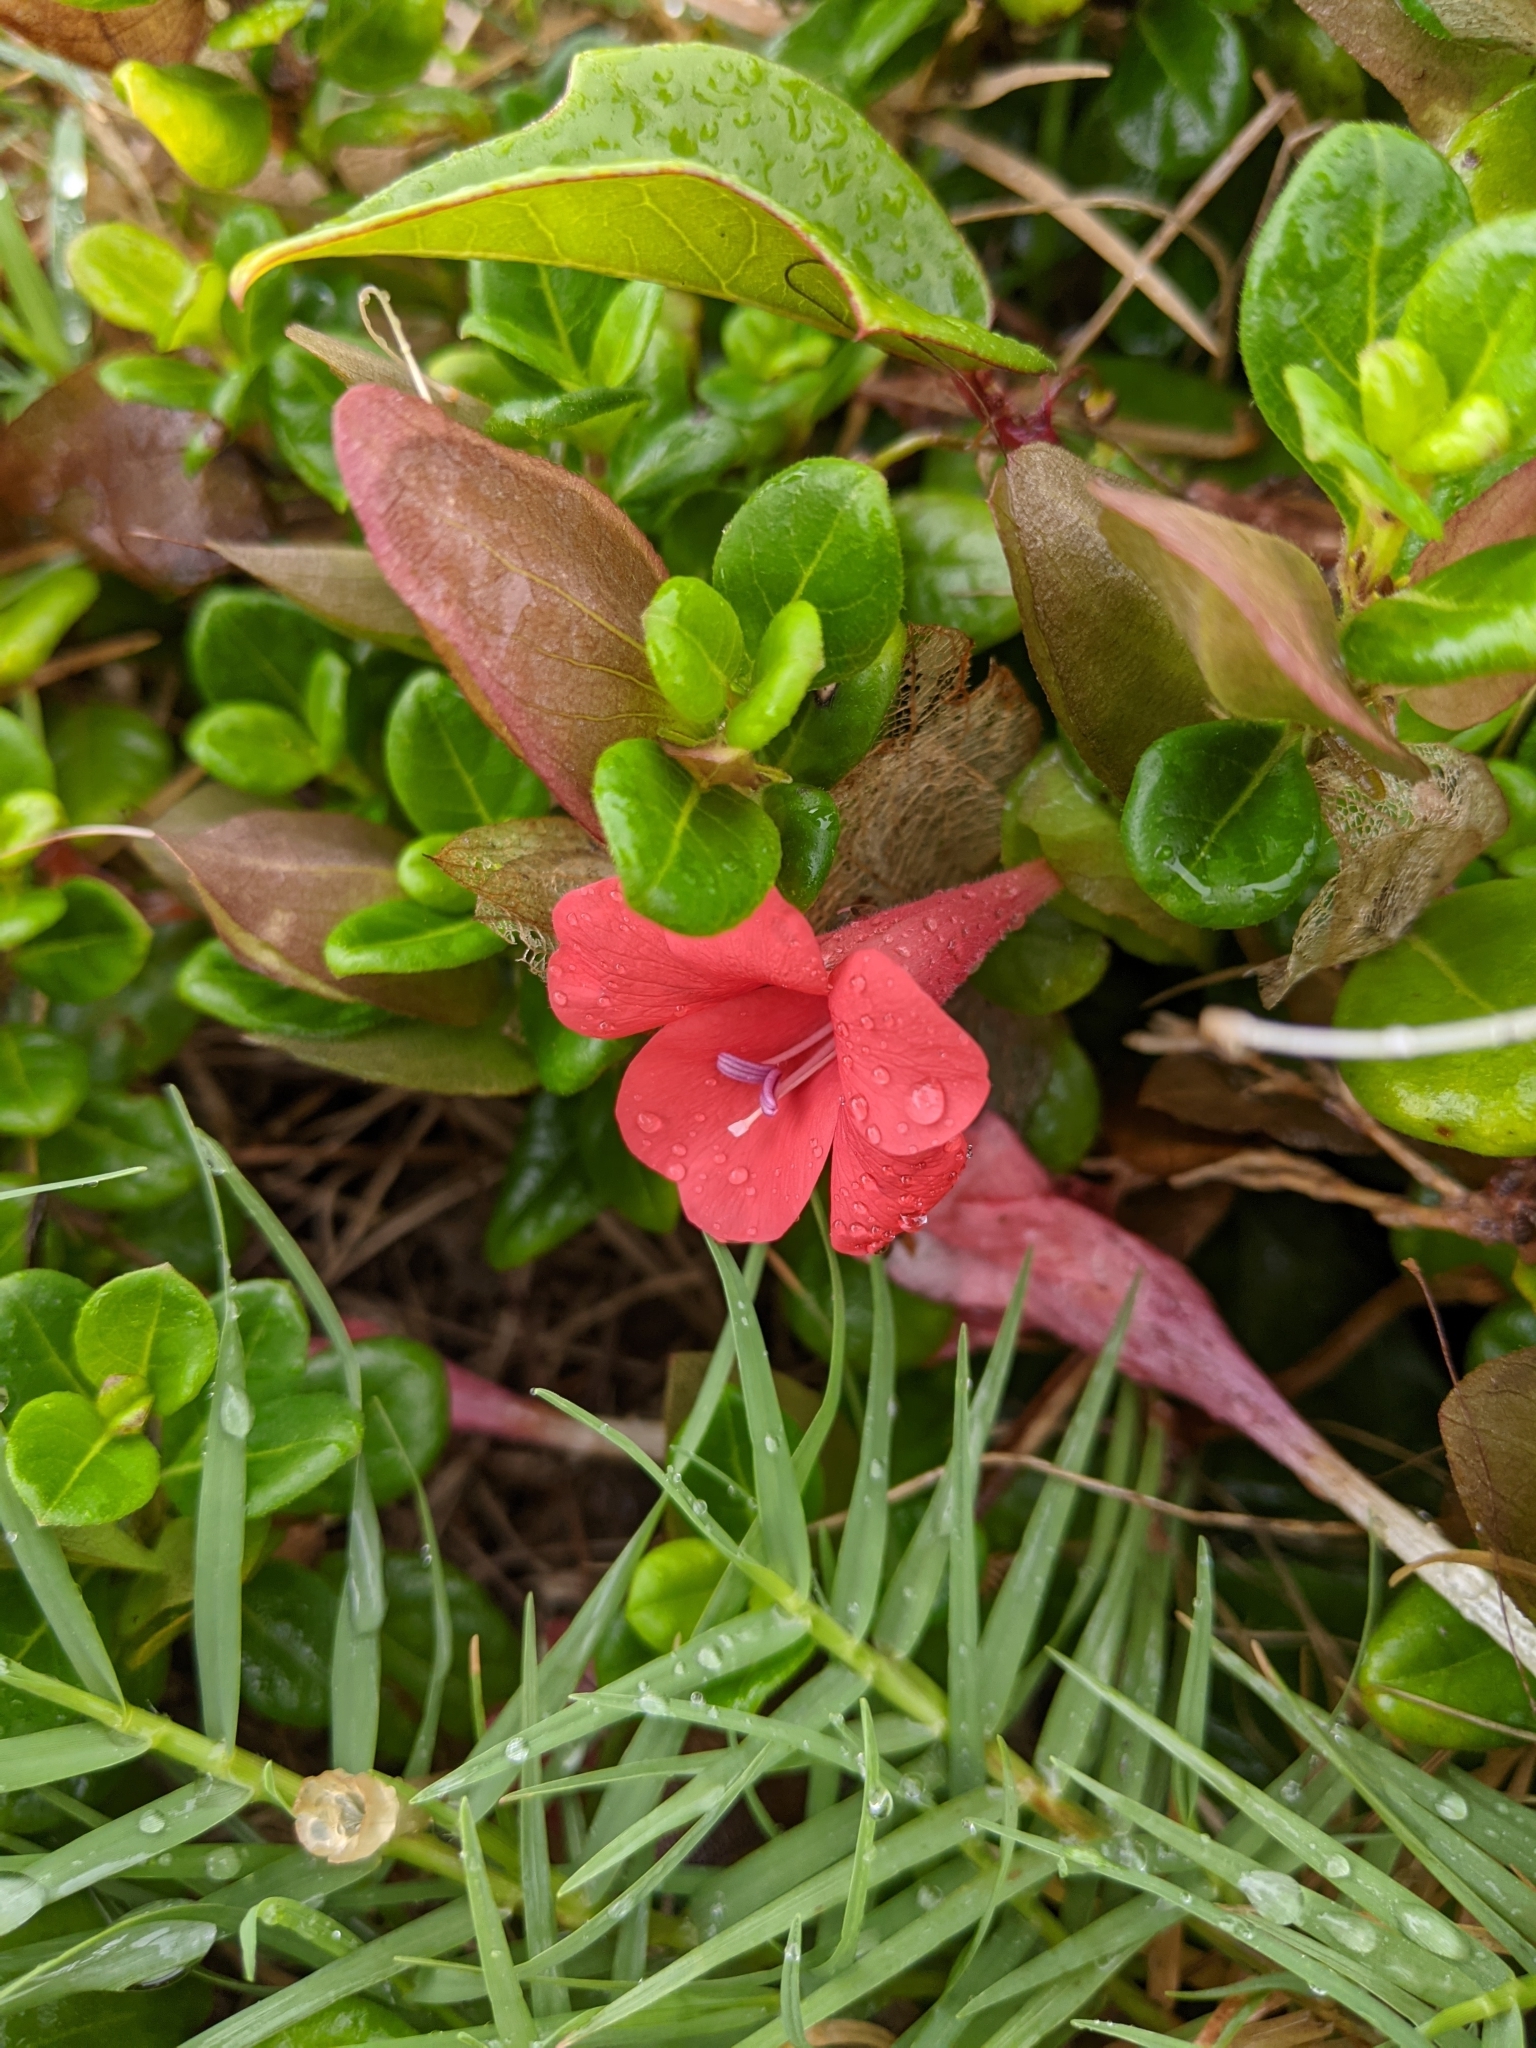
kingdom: Plantae
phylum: Tracheophyta
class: Magnoliopsida
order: Lamiales
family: Acanthaceae
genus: Barleria
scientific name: Barleria repens
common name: Pink-ruellia
